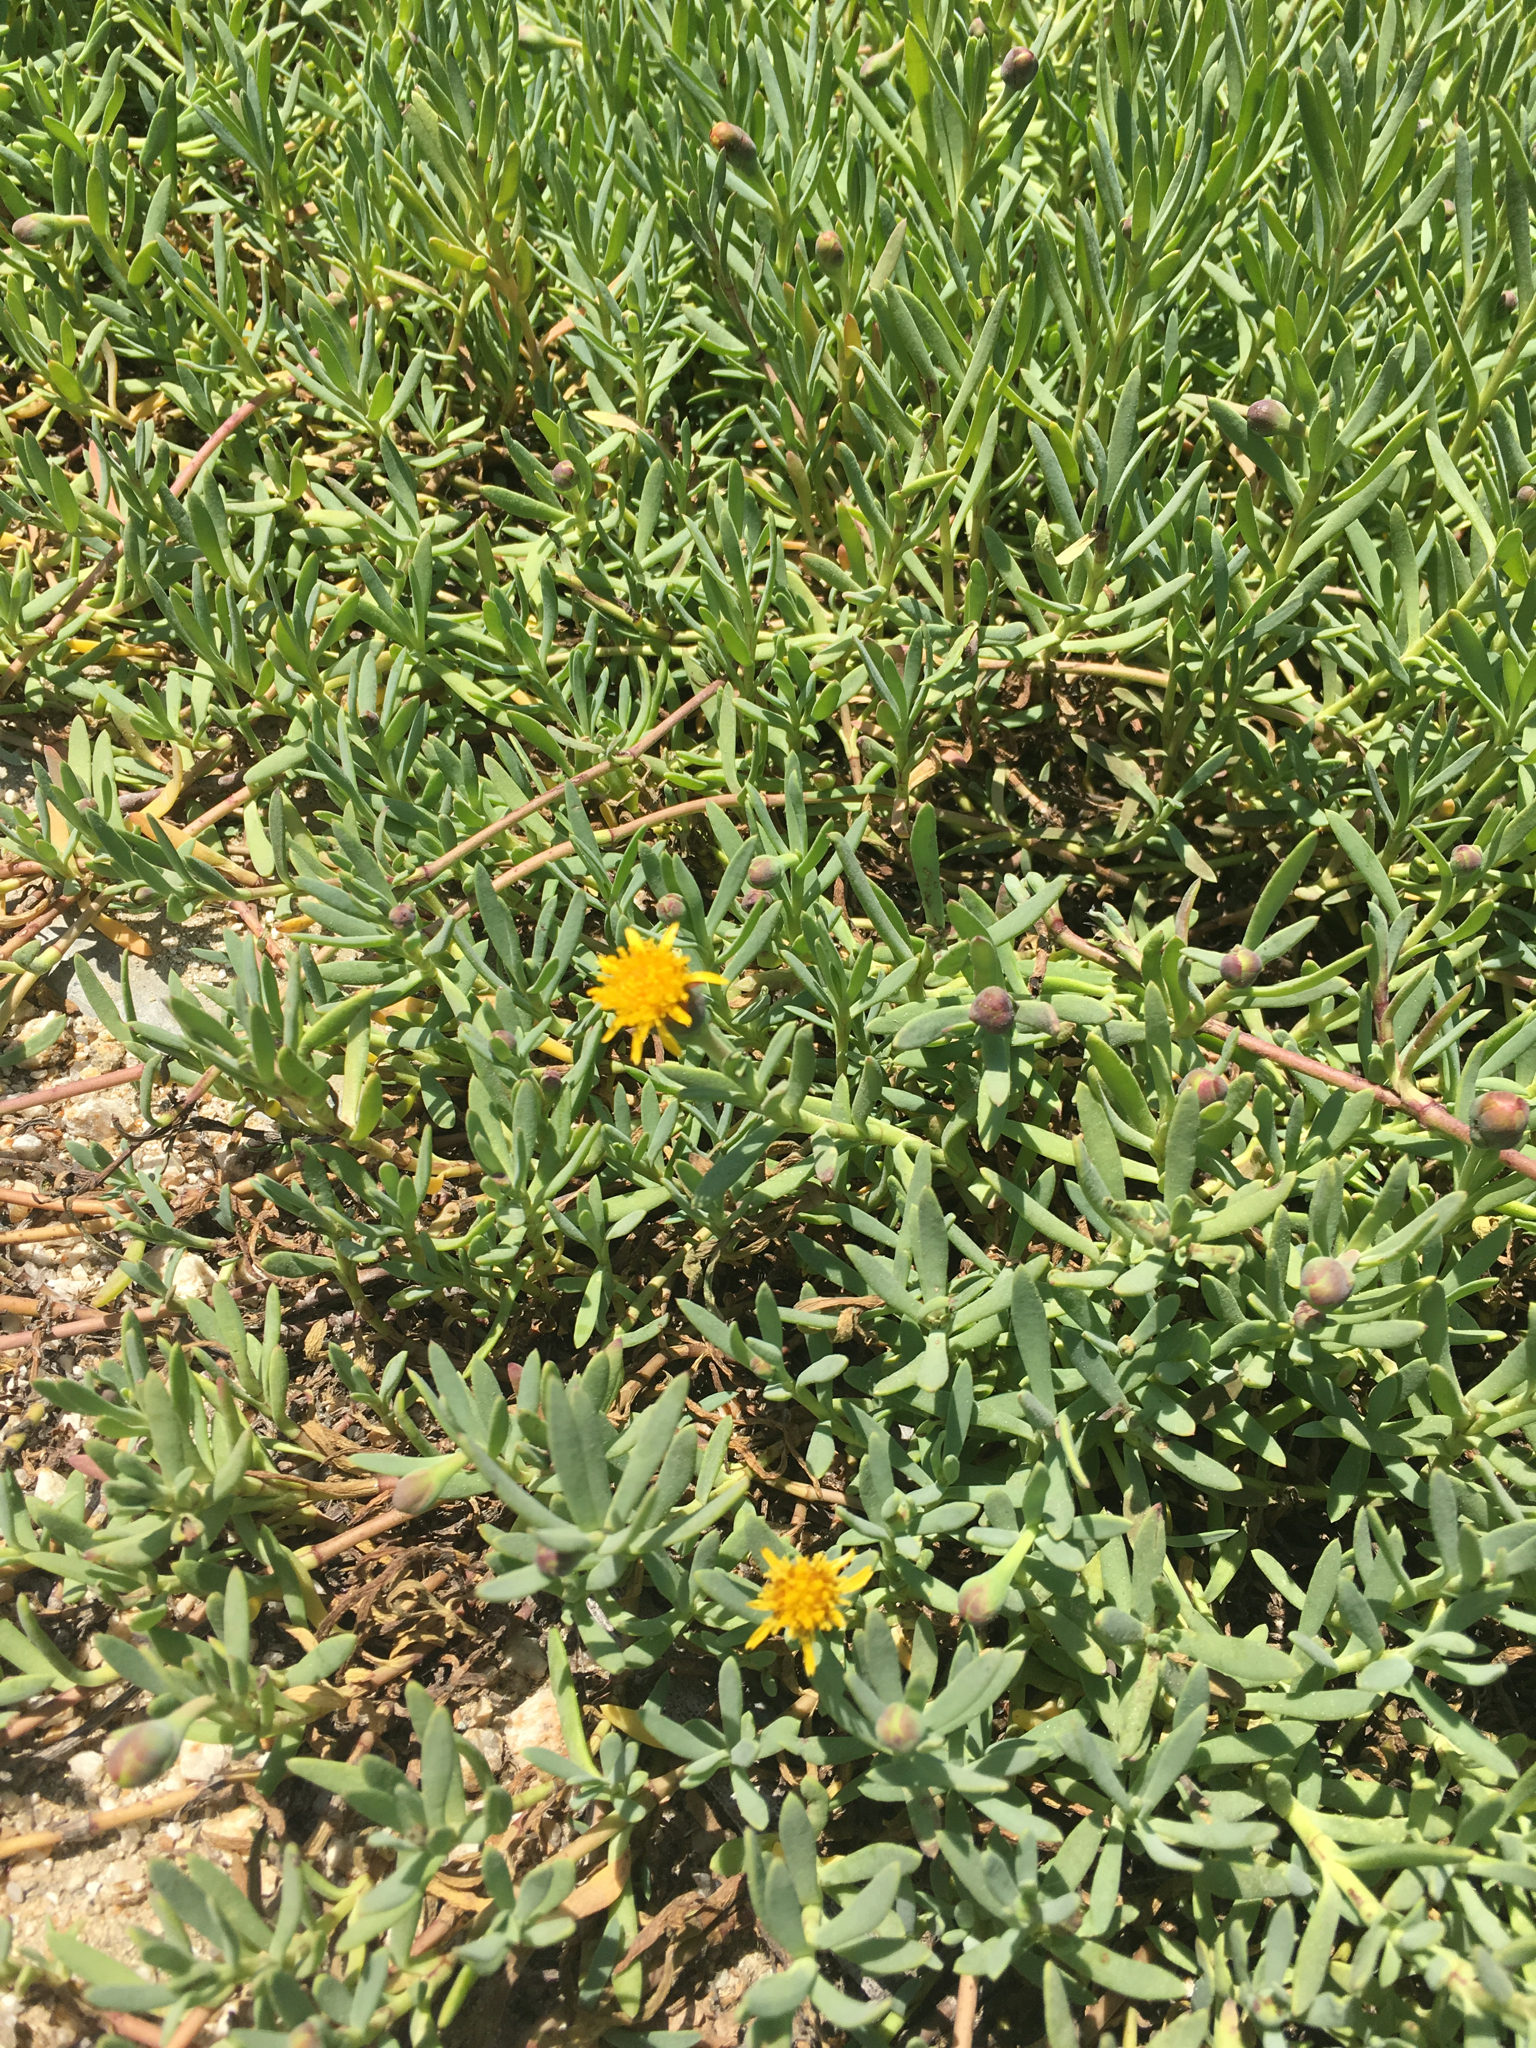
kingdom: Plantae
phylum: Tracheophyta
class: Magnoliopsida
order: Asterales
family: Asteraceae
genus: Jaumea
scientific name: Jaumea carnosa
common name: Fleshy jaumea
